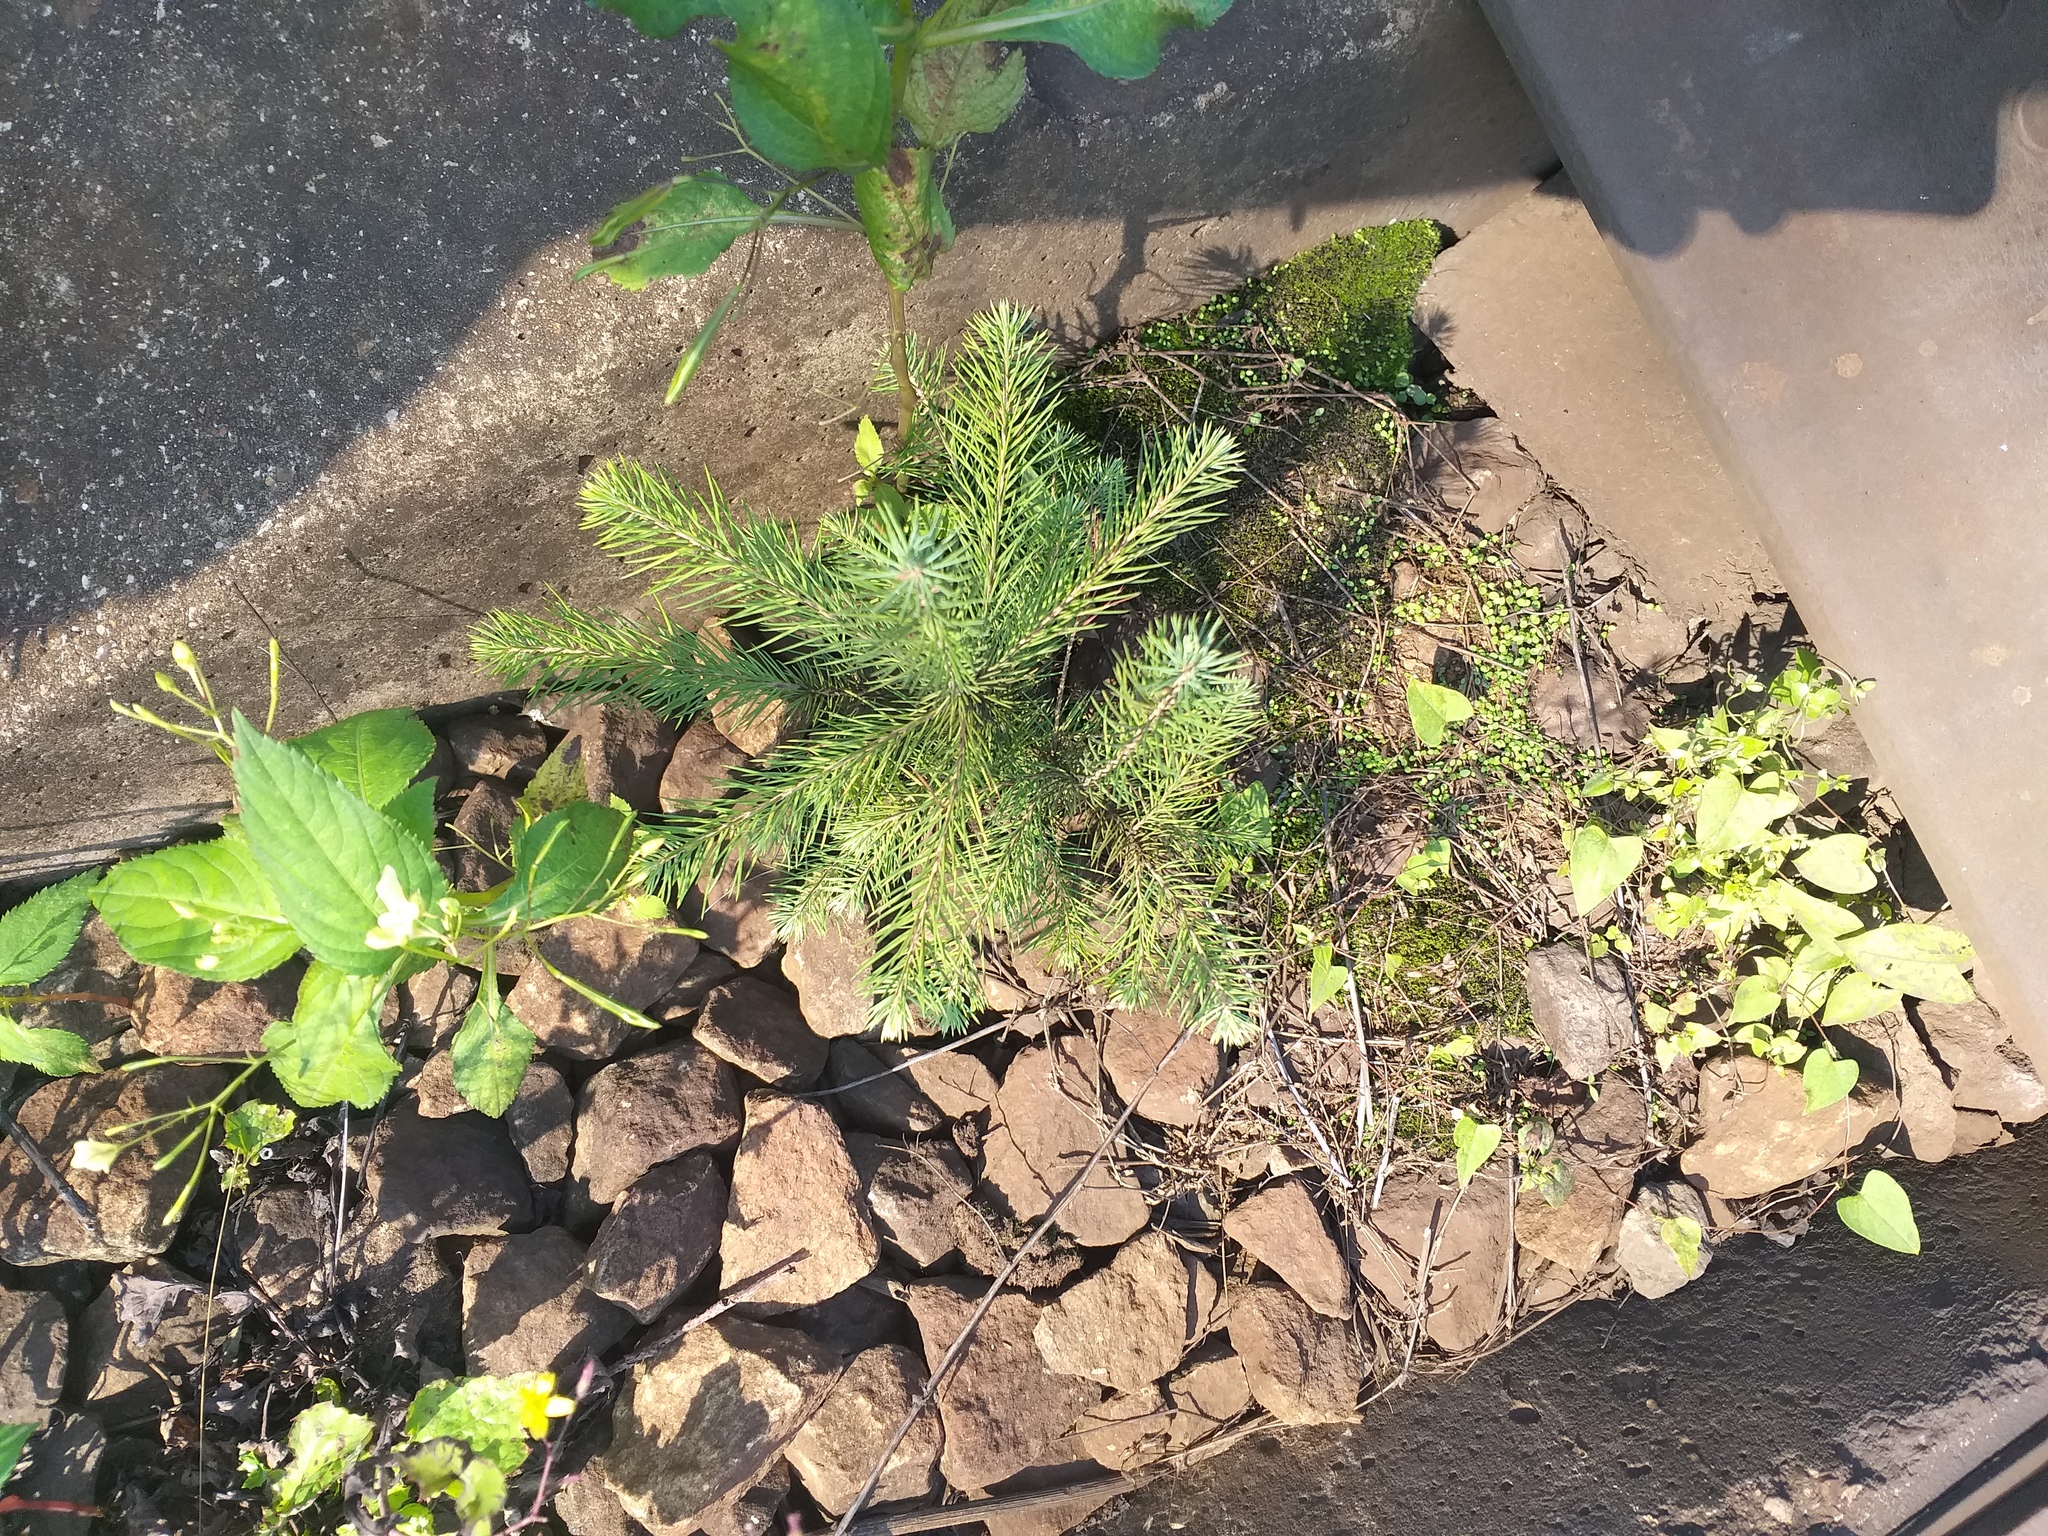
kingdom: Plantae
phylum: Tracheophyta
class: Pinopsida
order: Pinales
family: Pinaceae
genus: Picea
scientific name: Picea abies
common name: Norway spruce
